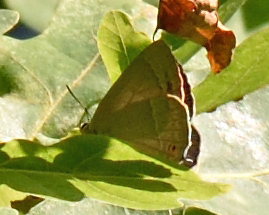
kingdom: Animalia
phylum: Arthropoda
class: Insecta
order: Lepidoptera
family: Lycaenidae
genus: Quercusia
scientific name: Quercusia quercus
